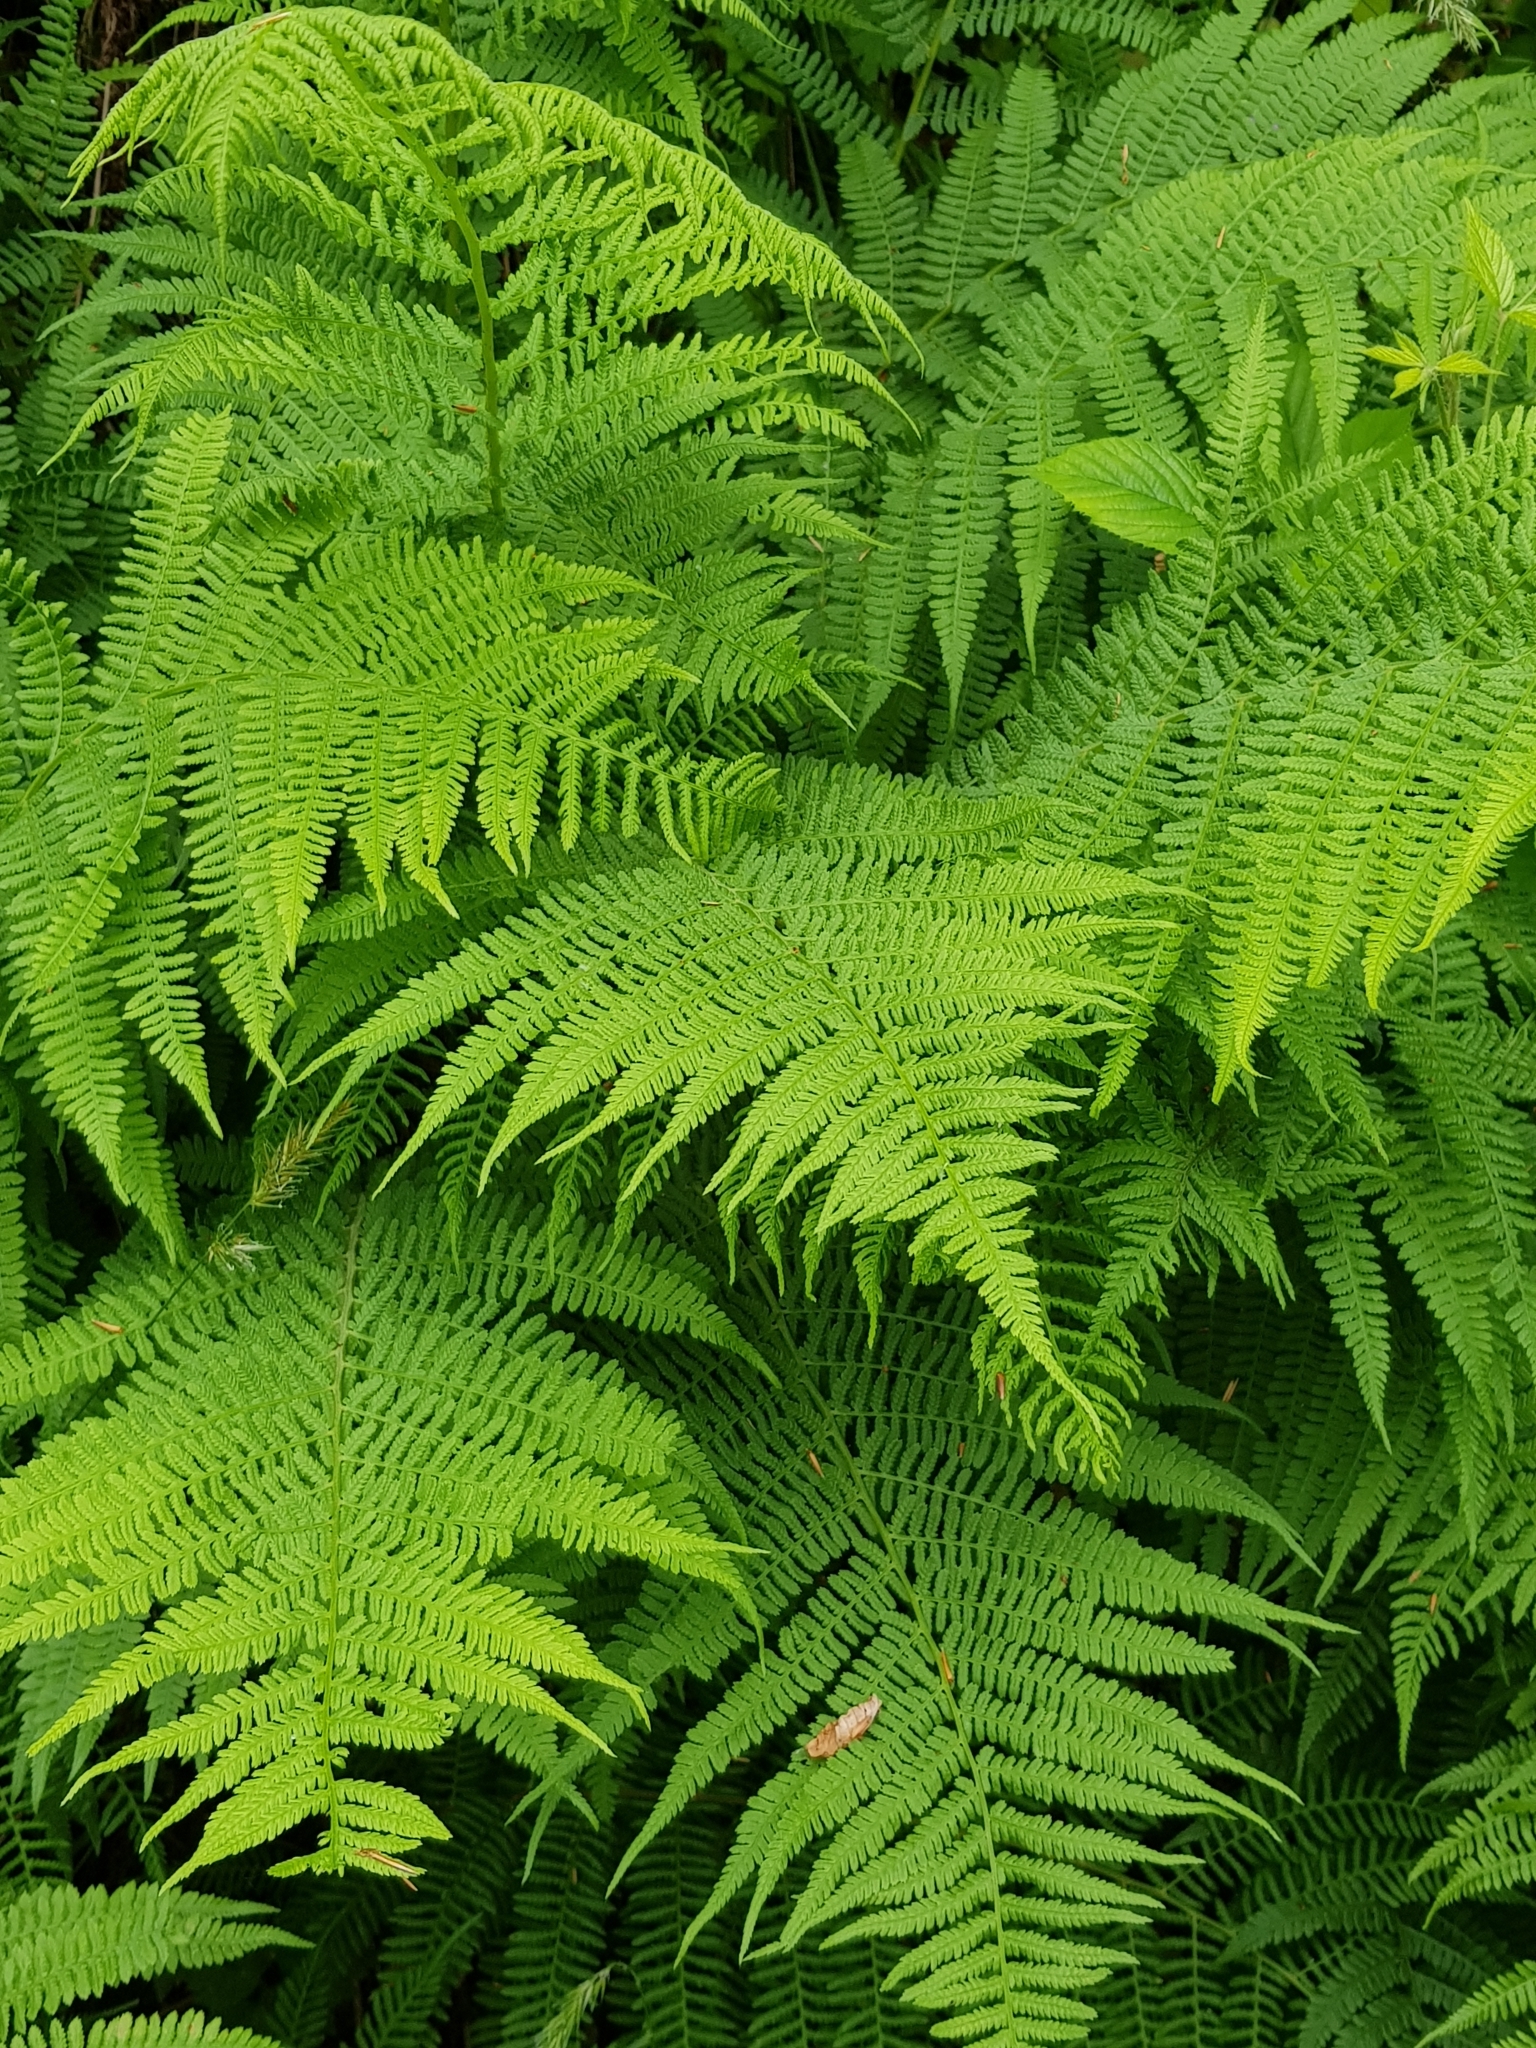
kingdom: Plantae
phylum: Tracheophyta
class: Polypodiopsida
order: Polypodiales
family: Athyriaceae
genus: Athyrium
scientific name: Athyrium filix-femina
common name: Lady fern
